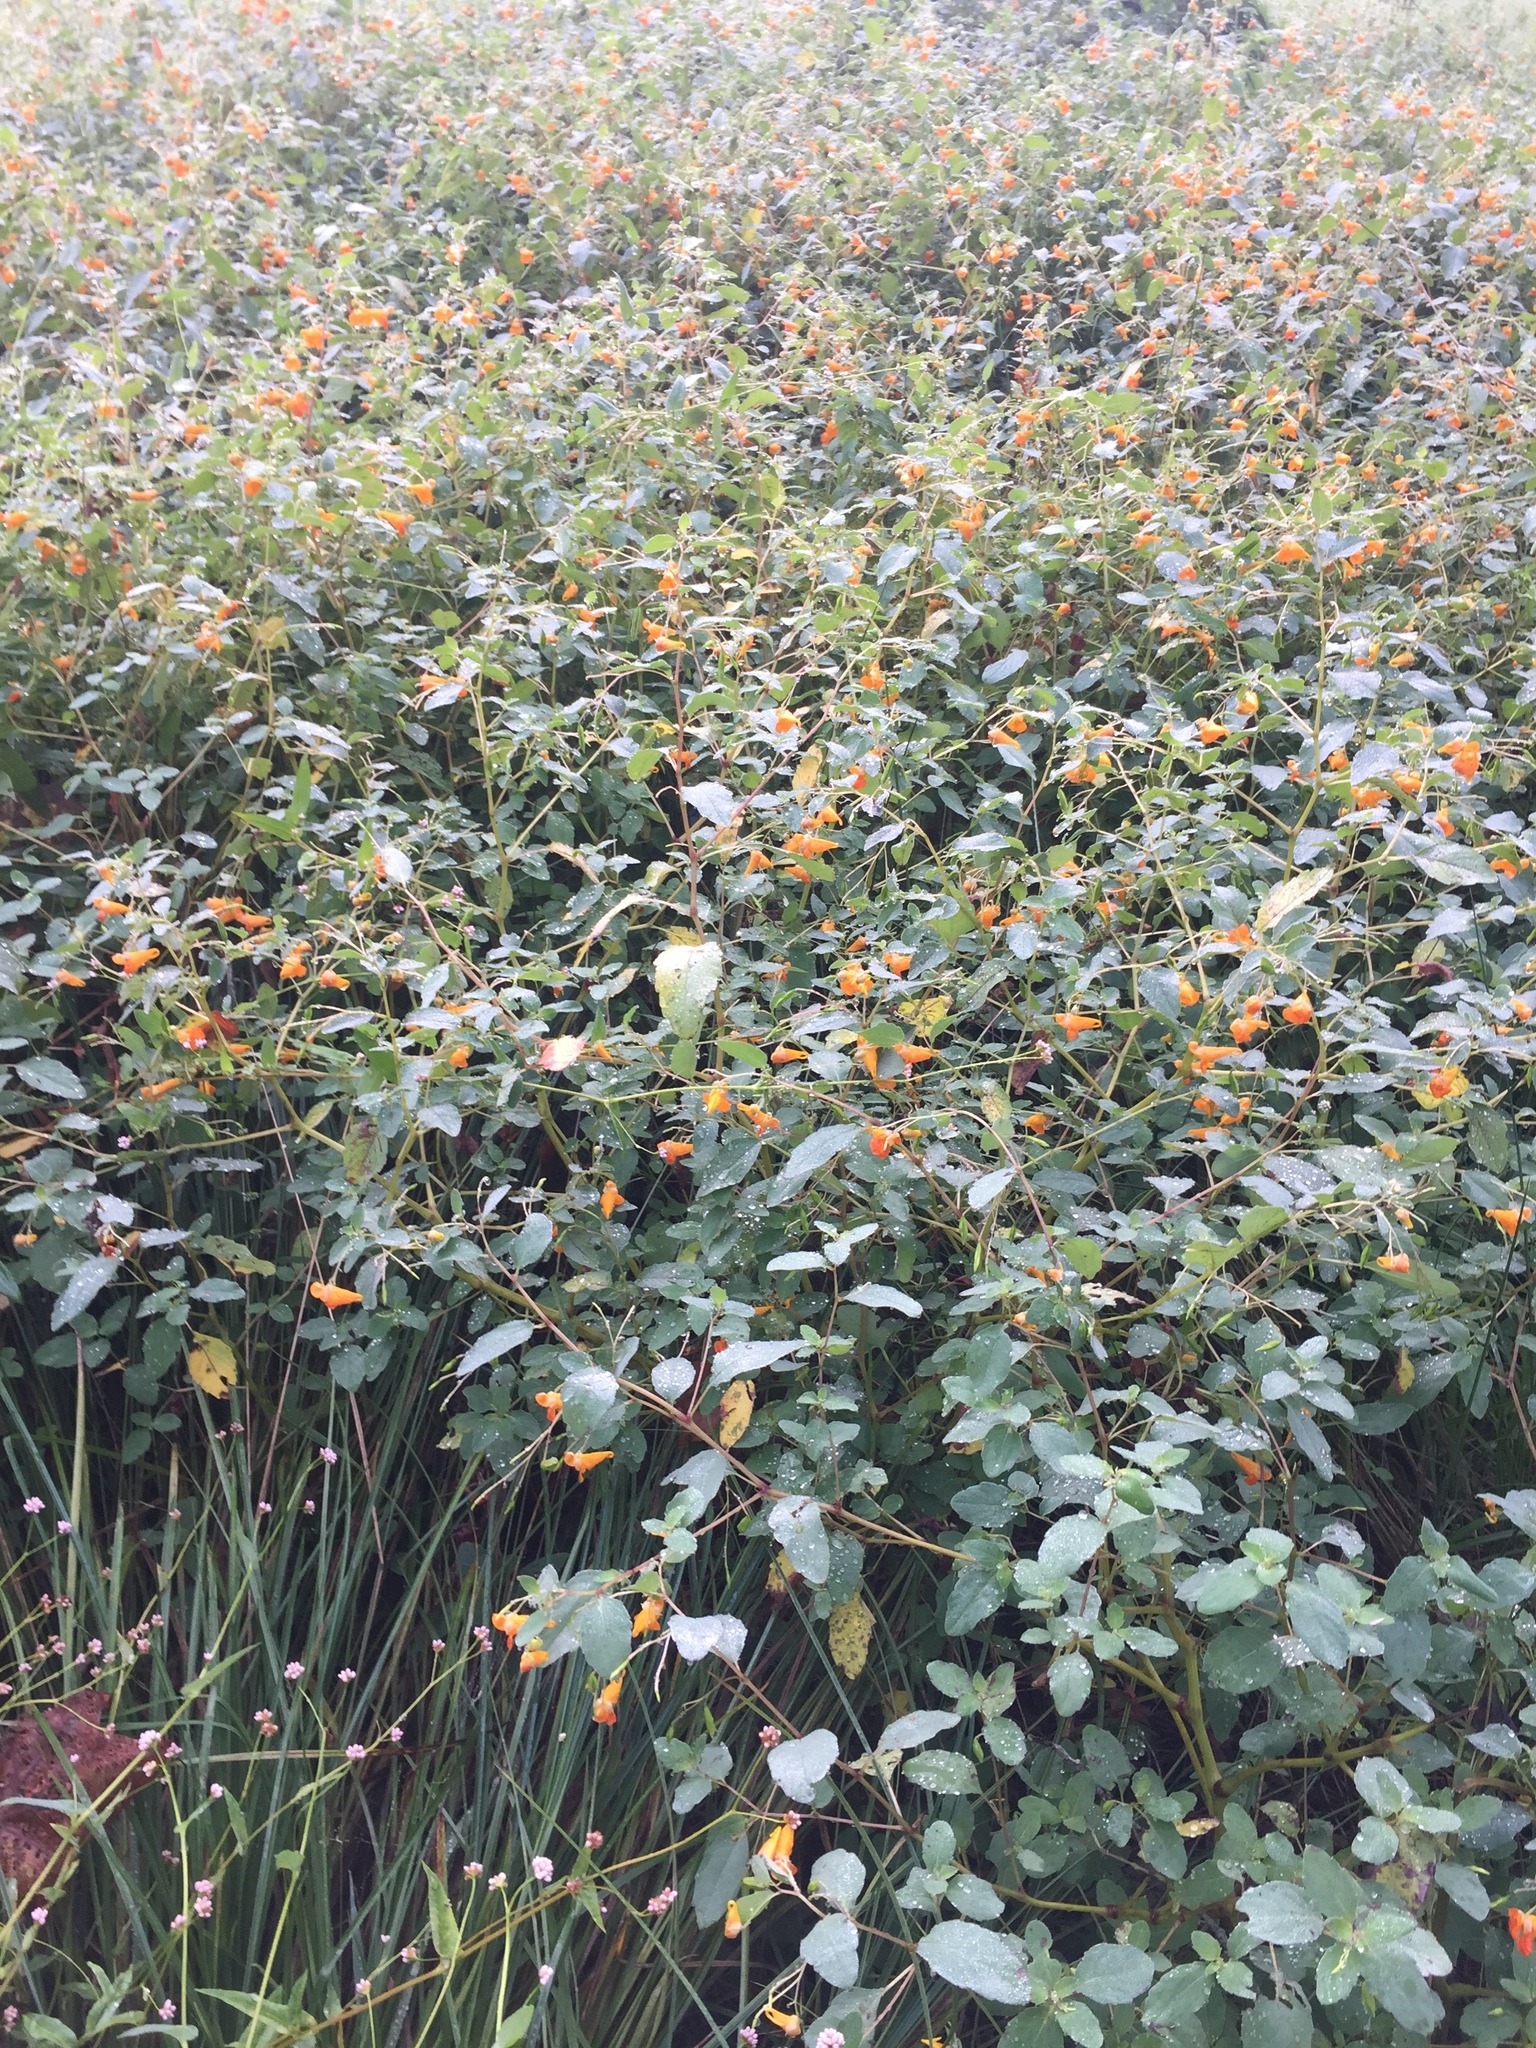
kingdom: Plantae
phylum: Tracheophyta
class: Magnoliopsida
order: Ericales
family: Balsaminaceae
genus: Impatiens
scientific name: Impatiens capensis
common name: Orange balsam
